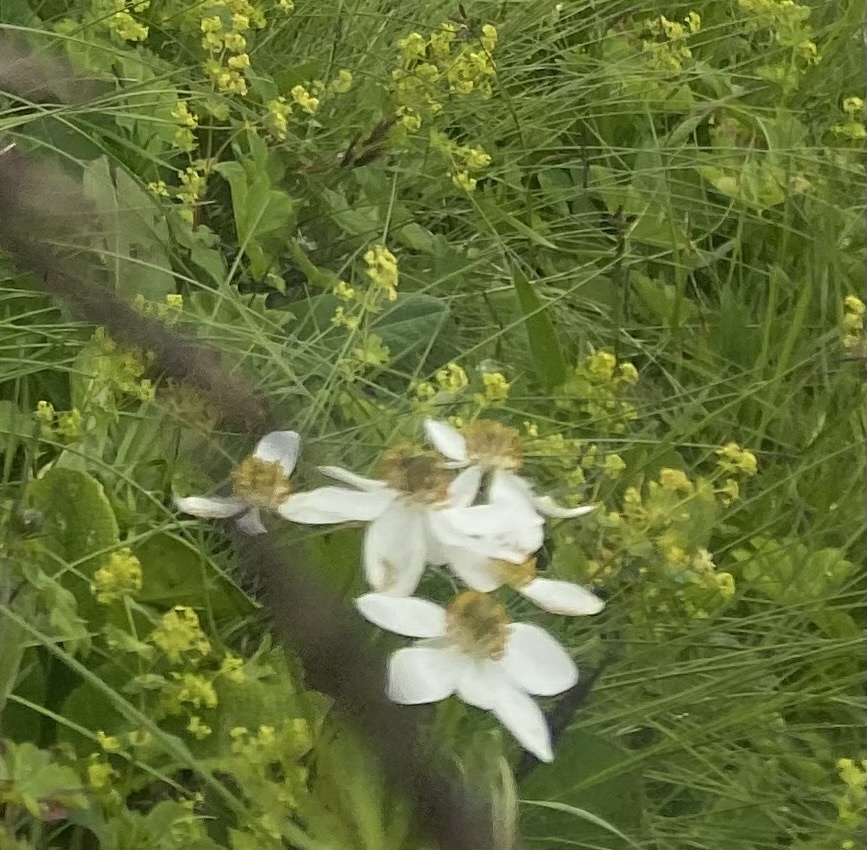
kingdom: Plantae
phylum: Tracheophyta
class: Magnoliopsida
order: Ranunculales
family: Ranunculaceae
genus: Anemonastrum
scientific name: Anemonastrum narcissiflorum
